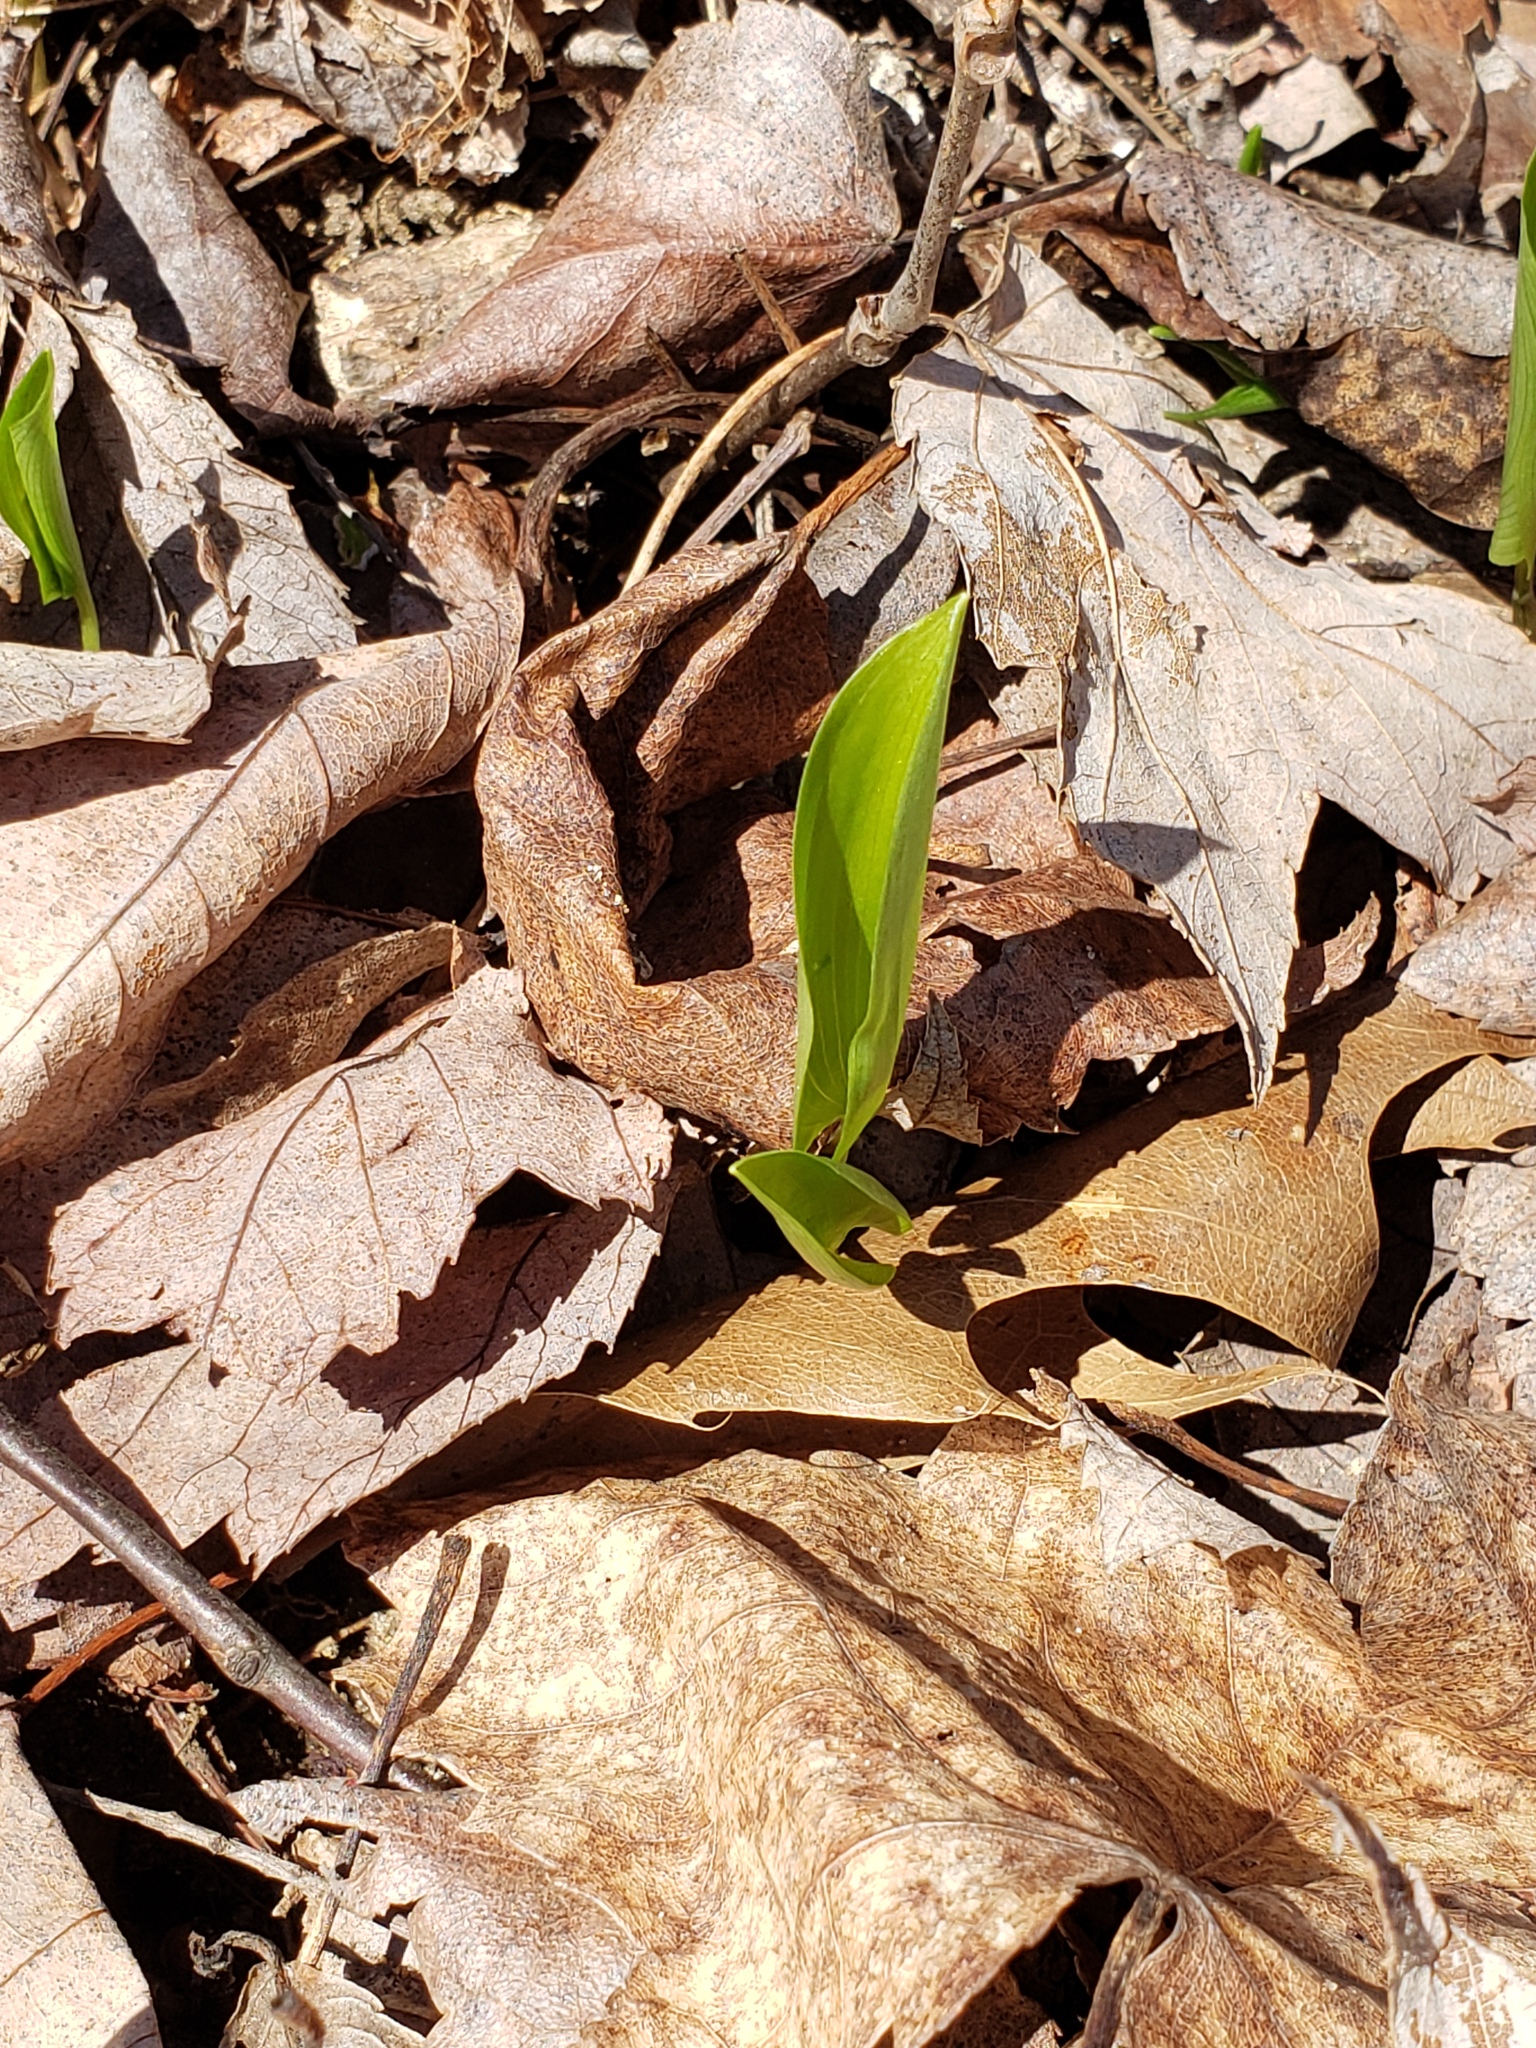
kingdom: Plantae
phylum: Tracheophyta
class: Liliopsida
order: Asparagales
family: Asparagaceae
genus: Maianthemum
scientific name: Maianthemum canadense
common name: False lily-of-the-valley
